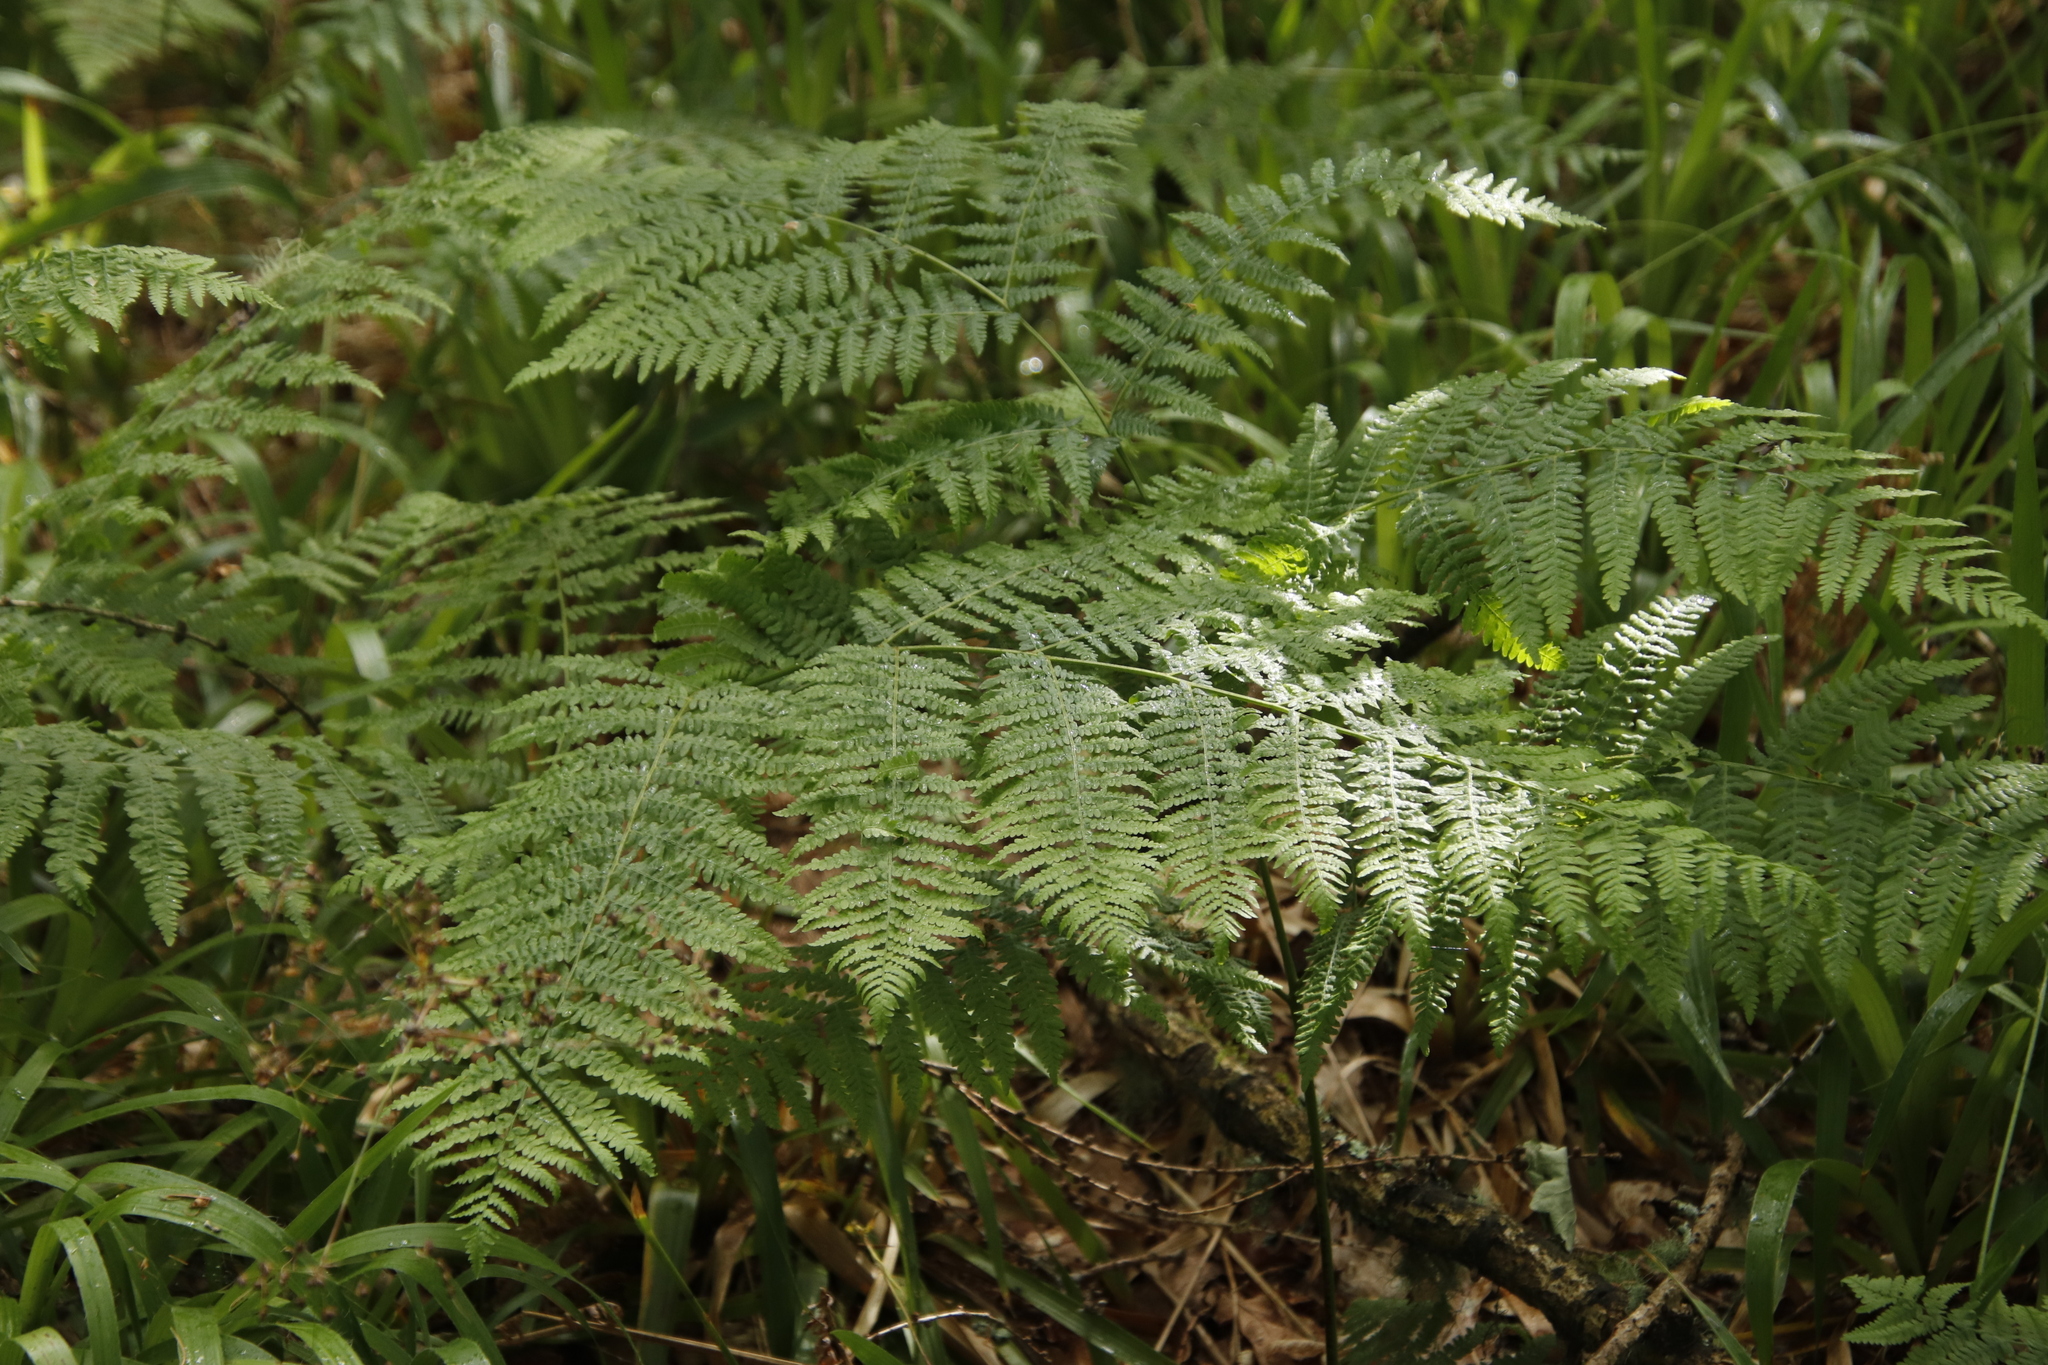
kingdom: Plantae
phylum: Tracheophyta
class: Polypodiopsida
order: Polypodiales
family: Dennstaedtiaceae
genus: Pteridium
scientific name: Pteridium aquilinum
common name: Bracken
